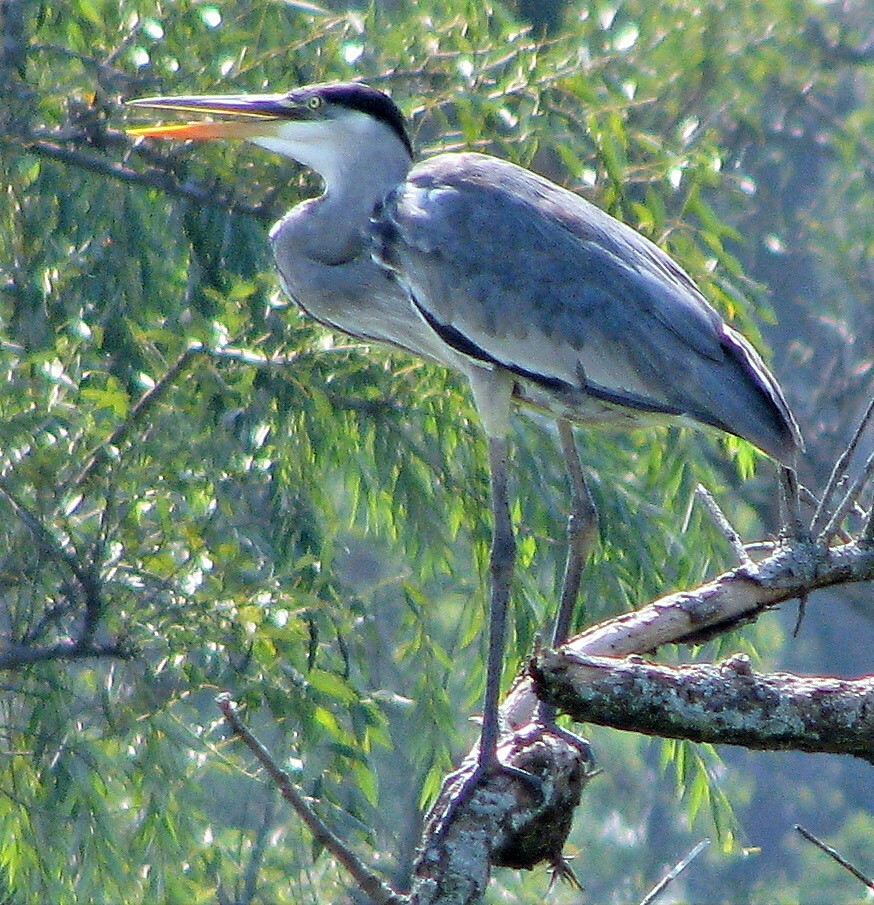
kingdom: Animalia
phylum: Chordata
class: Aves
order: Pelecaniformes
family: Ardeidae
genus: Ardea
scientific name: Ardea cocoi
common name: Cocoi heron
